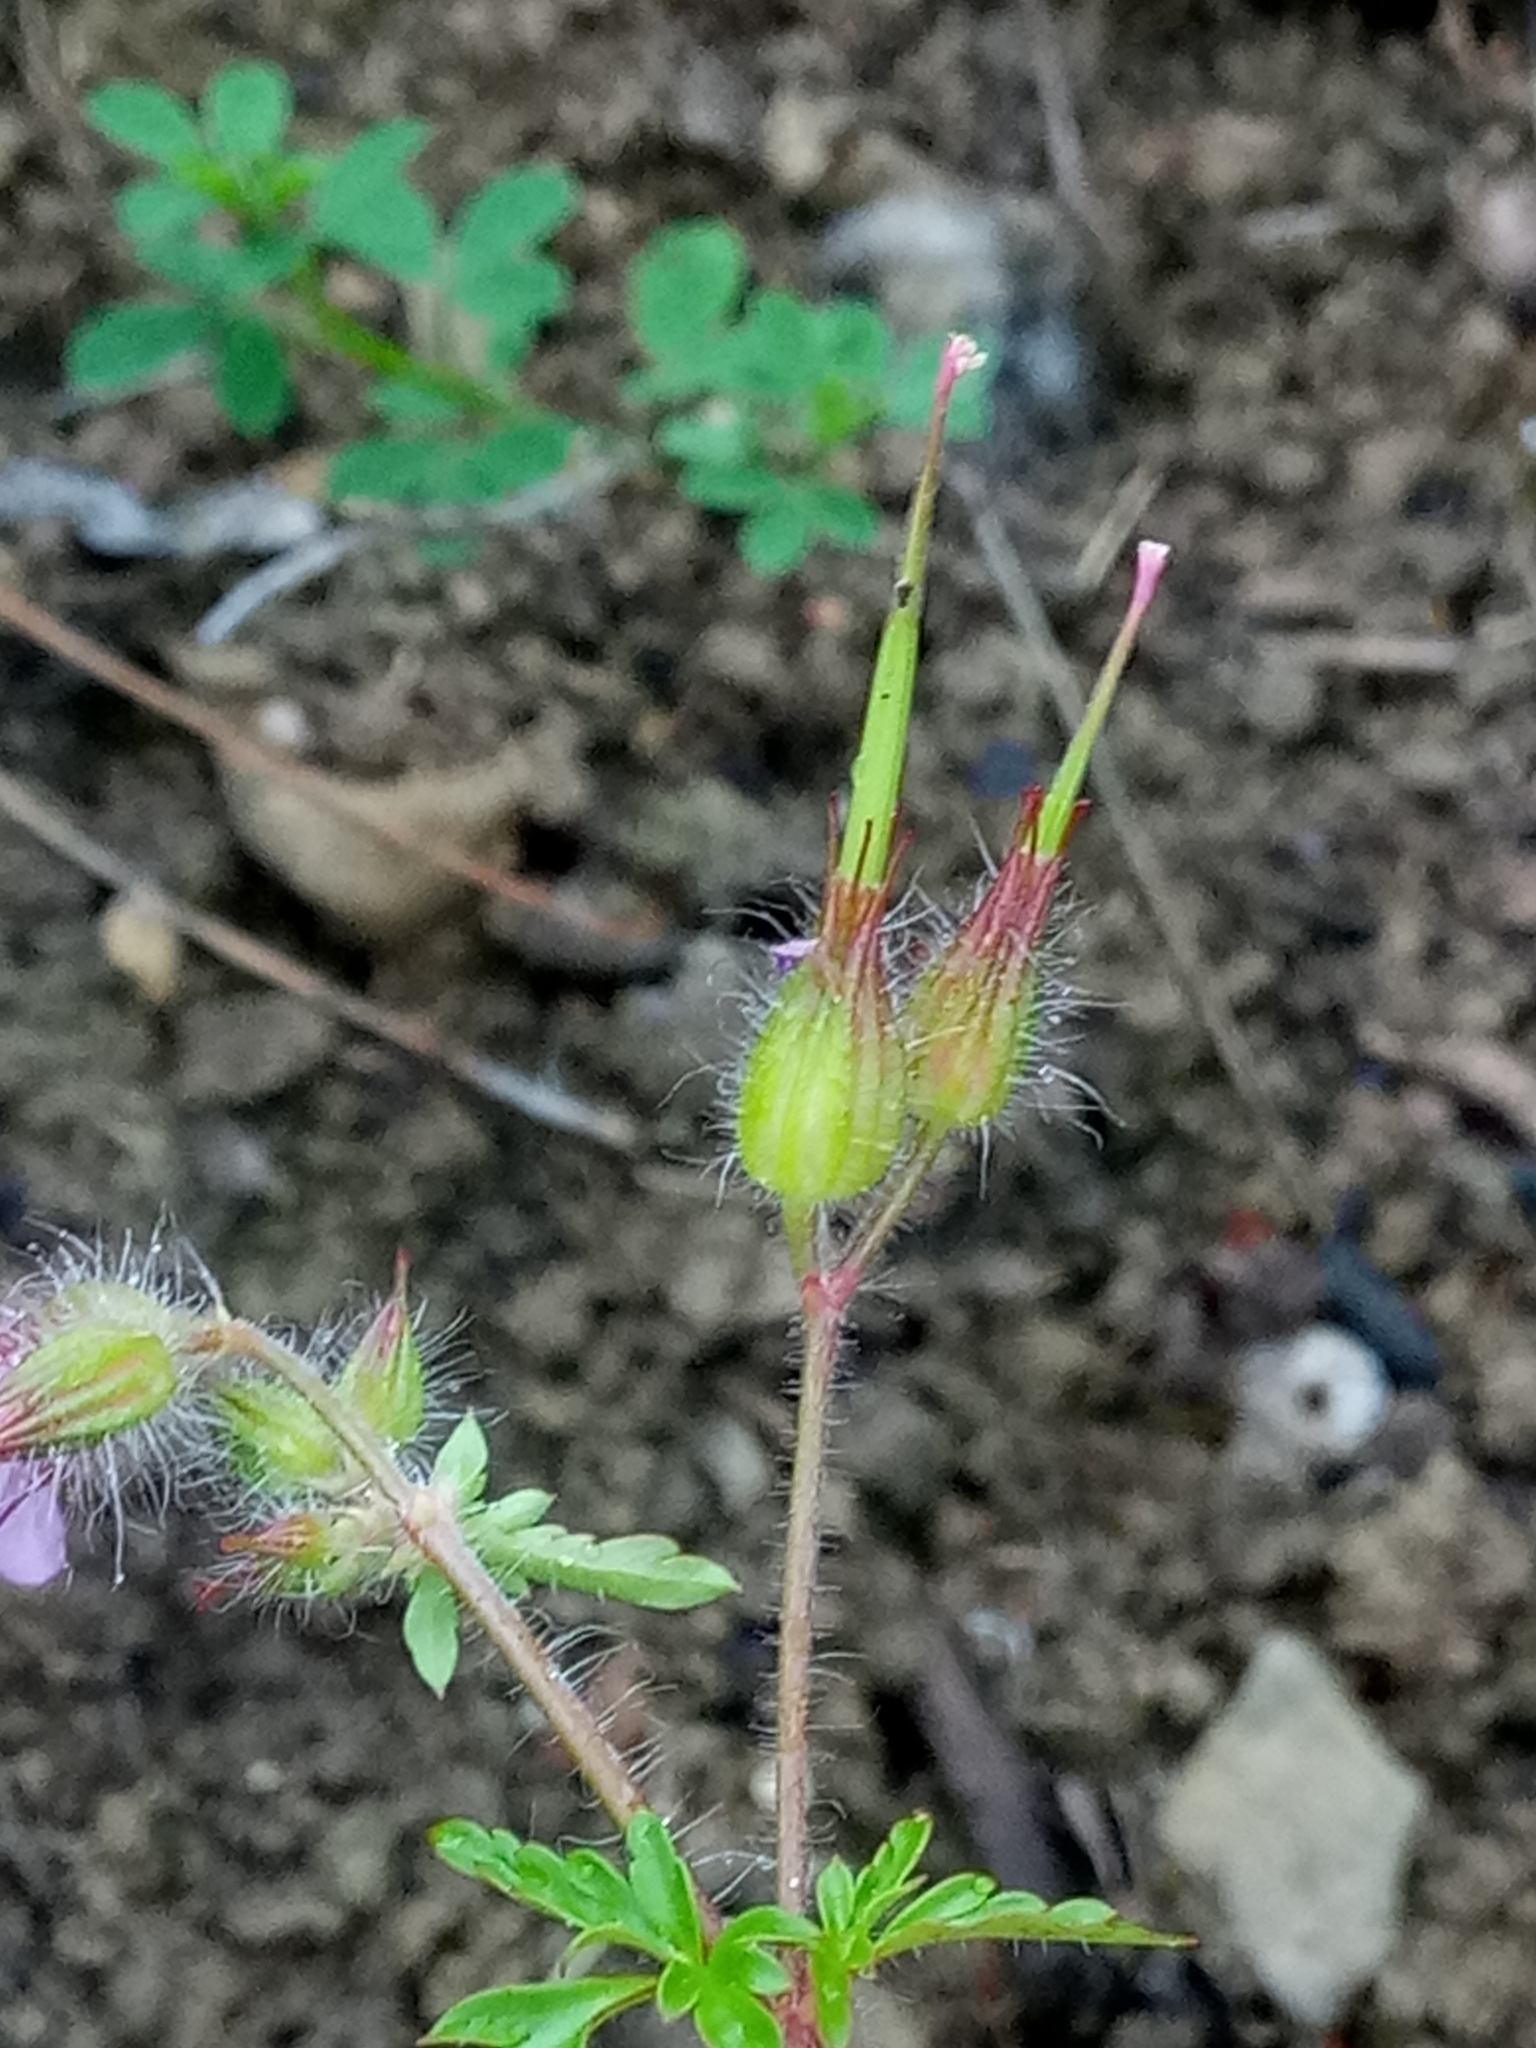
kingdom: Plantae
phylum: Tracheophyta
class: Magnoliopsida
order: Geraniales
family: Geraniaceae
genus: Geranium
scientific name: Geranium purpureum
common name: Little-robin
